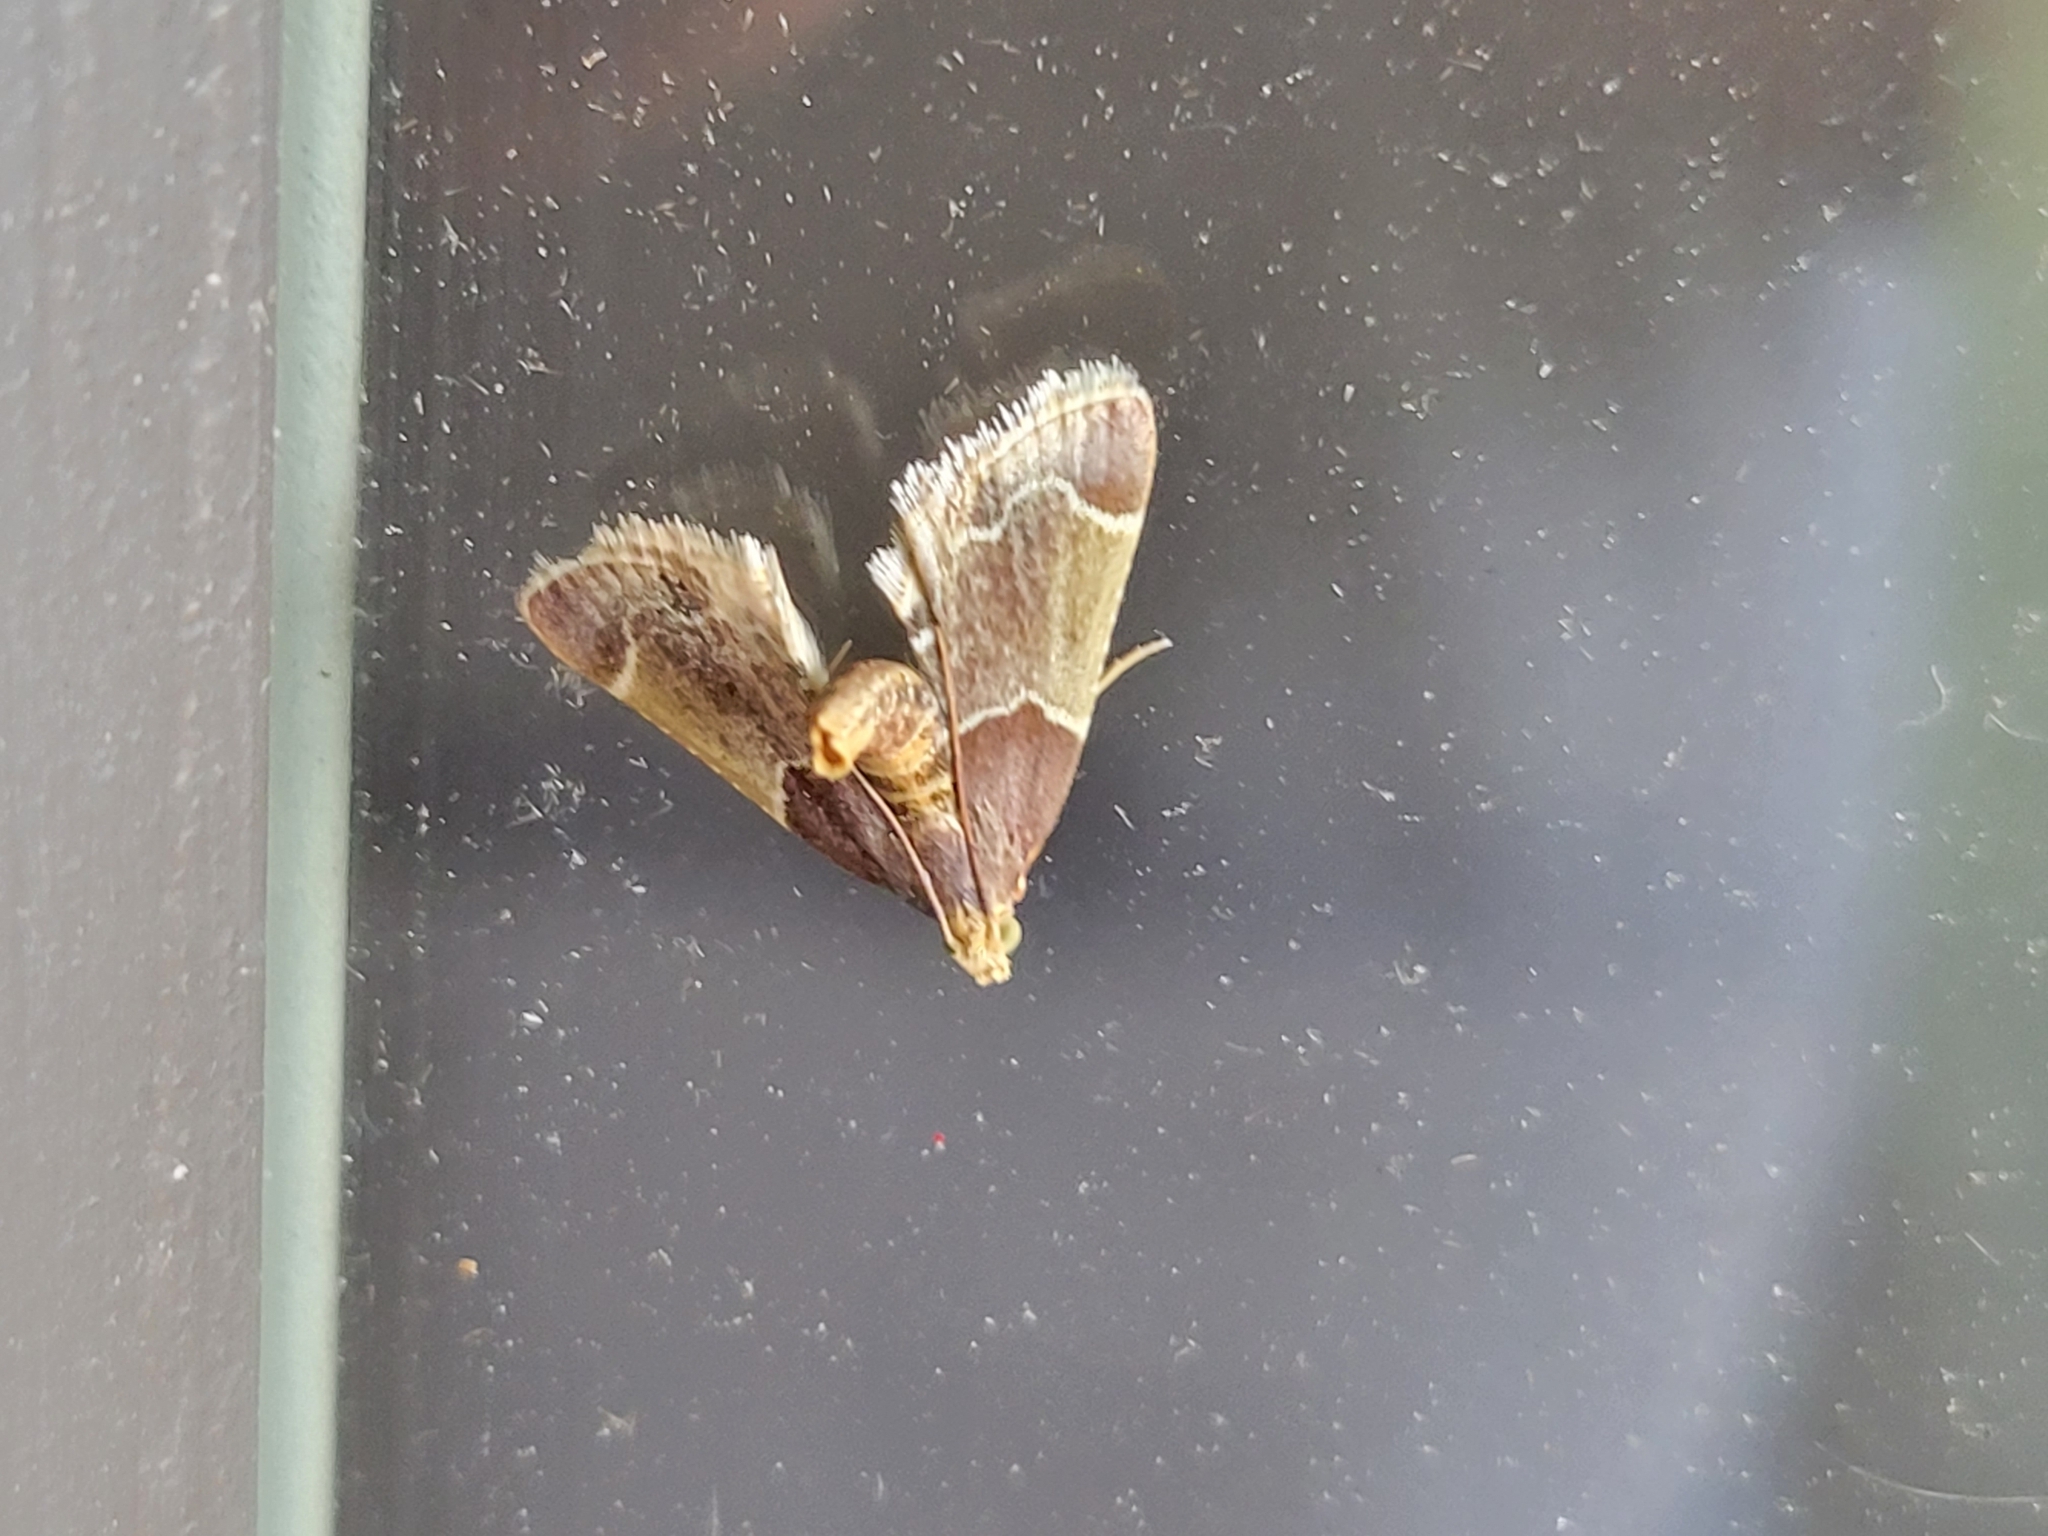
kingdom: Animalia
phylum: Arthropoda
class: Insecta
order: Lepidoptera
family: Pyralidae
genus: Pyralis
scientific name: Pyralis farinalis
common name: Meal moth
